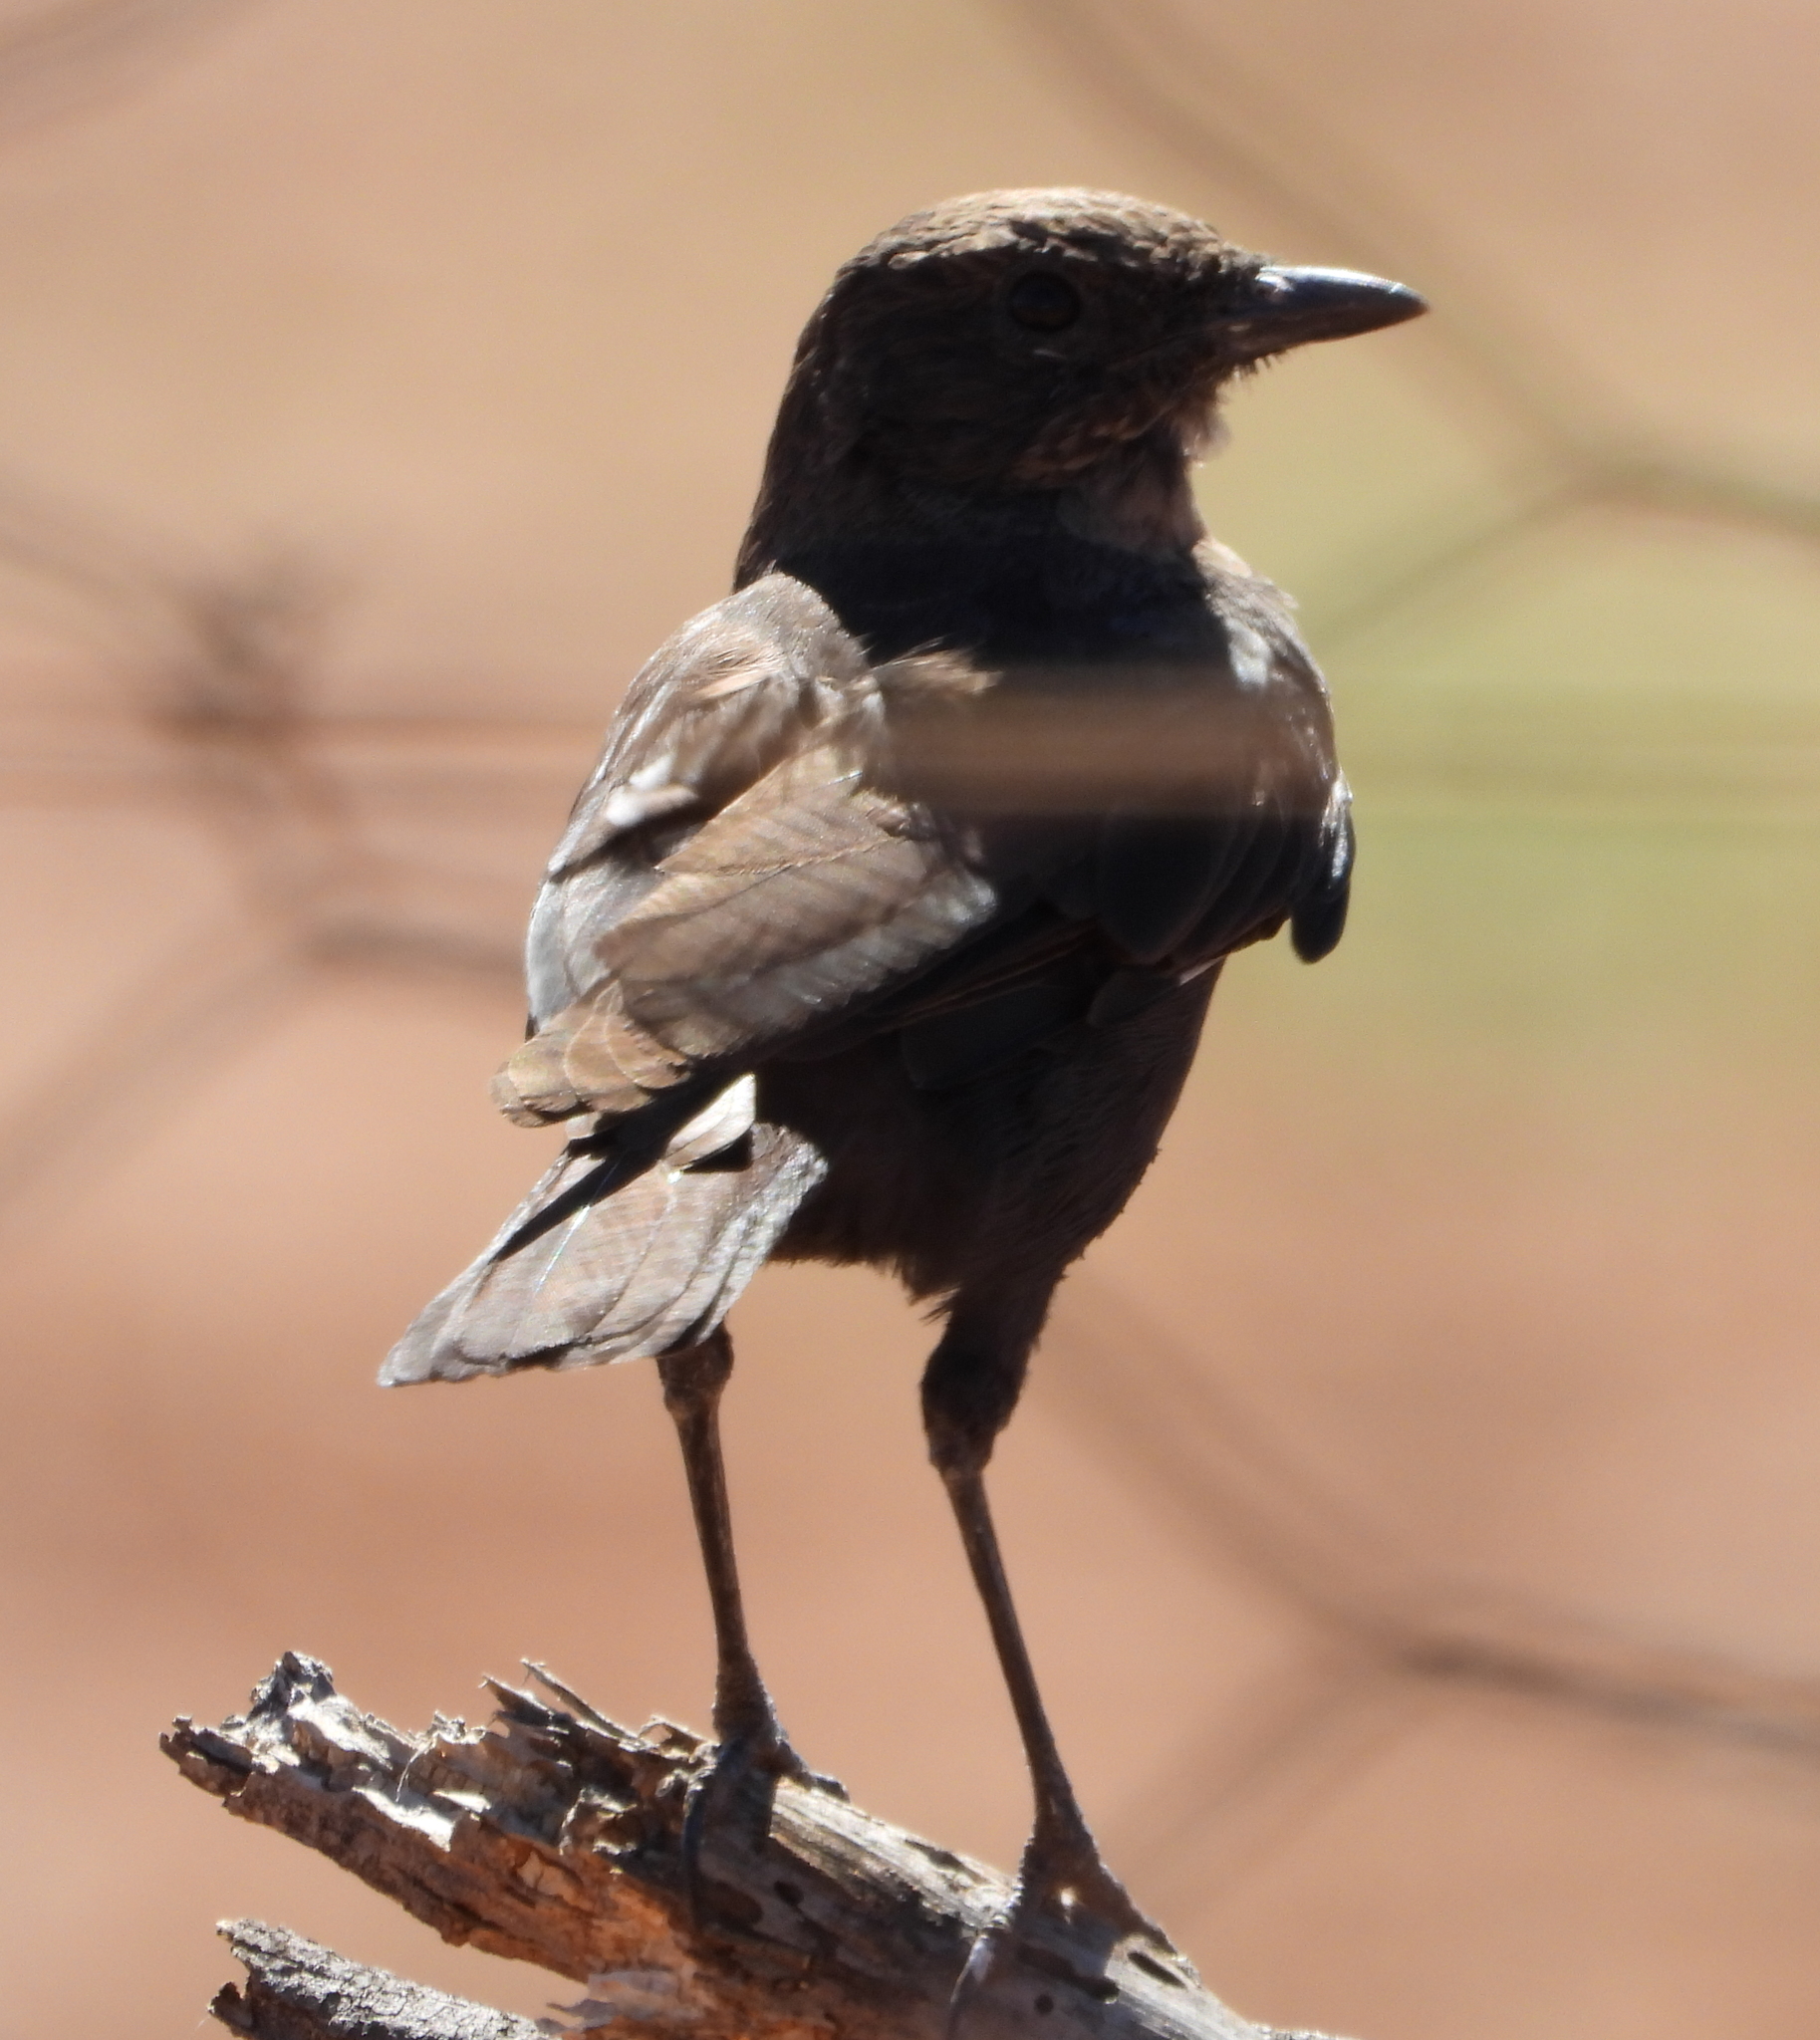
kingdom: Animalia
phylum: Chordata
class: Aves
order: Passeriformes
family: Muscicapidae
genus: Myrmecocichla
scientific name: Myrmecocichla formicivora
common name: Ant-eating chat
